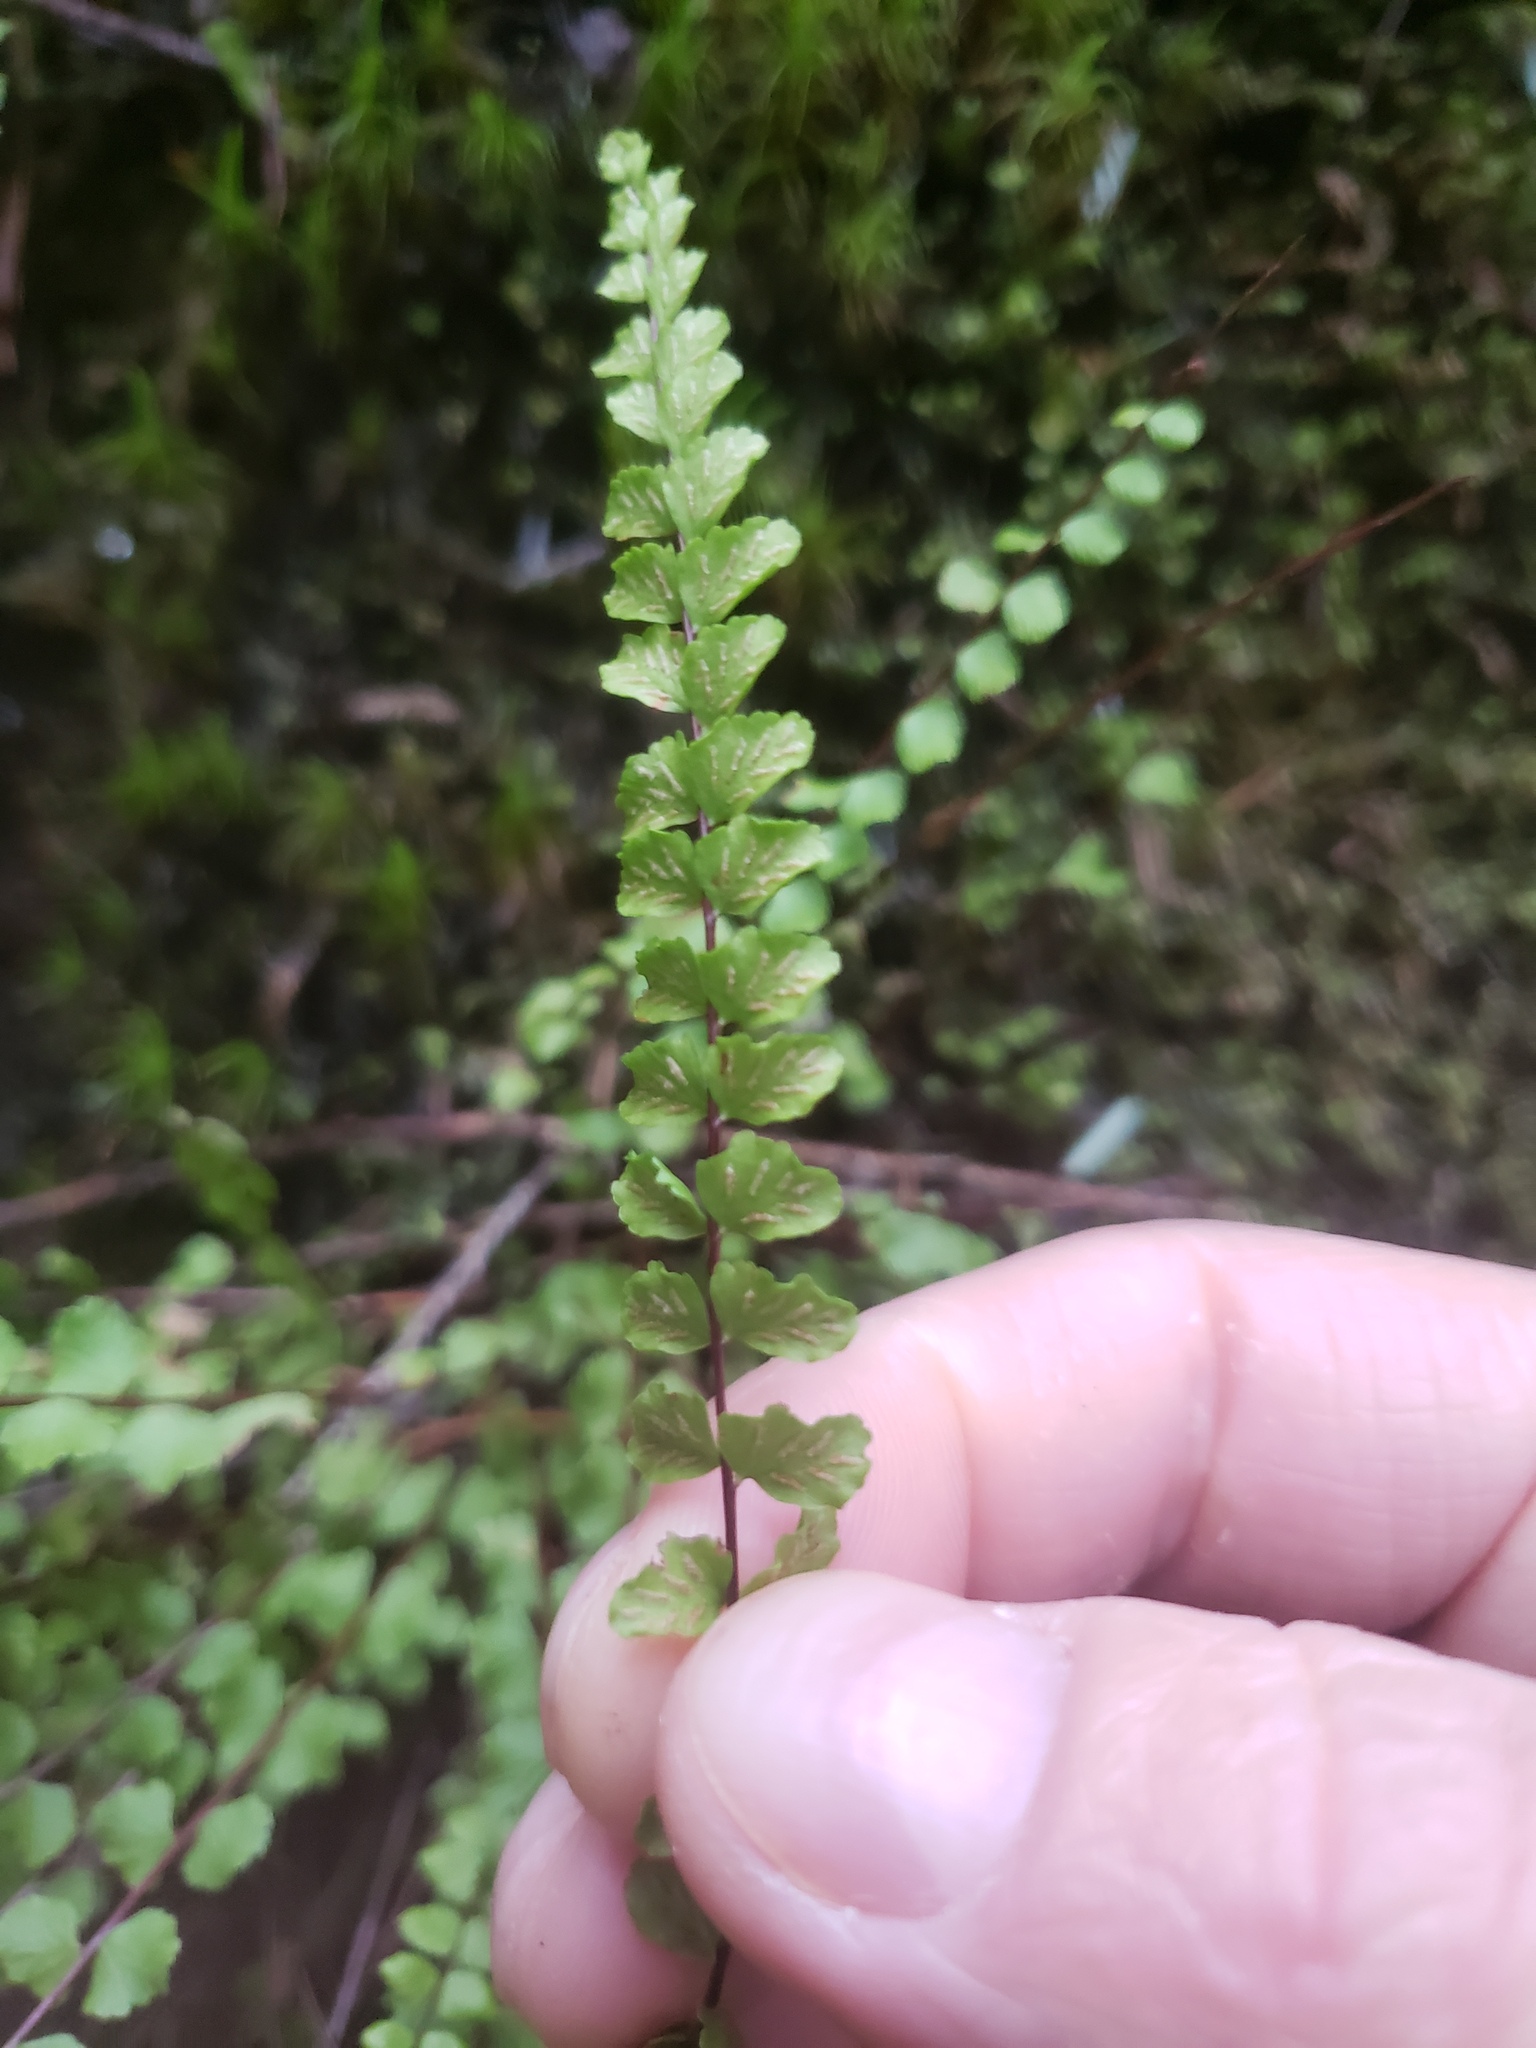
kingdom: Plantae
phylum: Tracheophyta
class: Polypodiopsida
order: Polypodiales
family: Aspleniaceae
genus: Asplenium
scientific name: Asplenium trichomanes
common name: Maidenhair spleenwort
